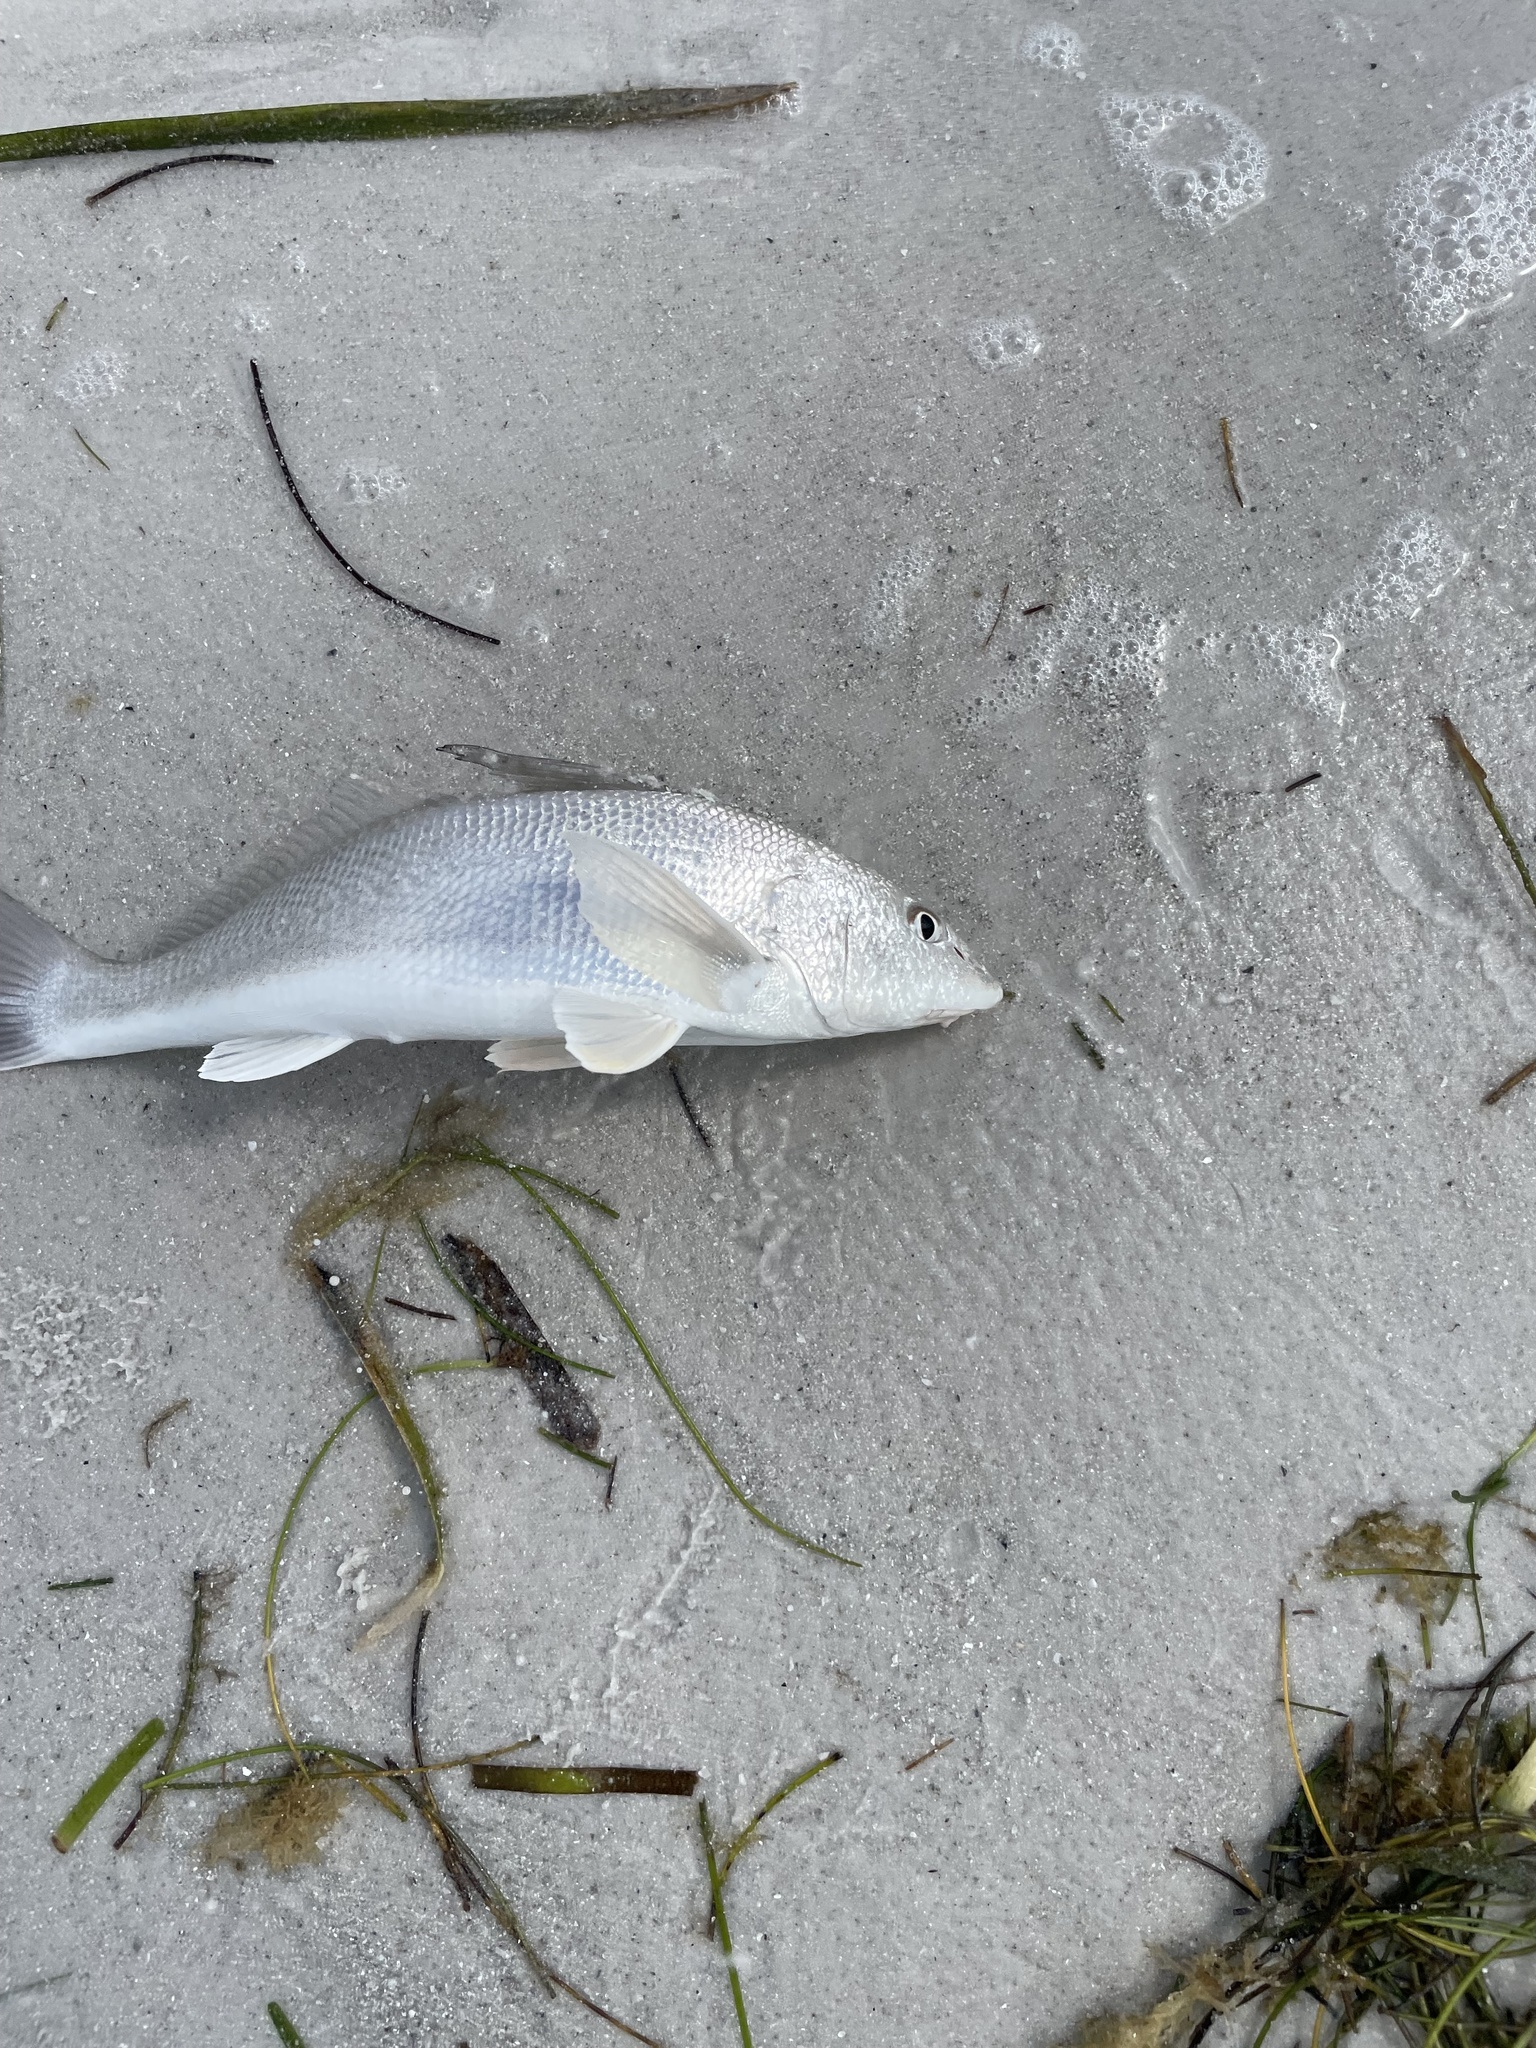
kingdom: Animalia
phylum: Chordata
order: Perciformes
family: Sciaenidae
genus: Menticirrhus
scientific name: Menticirrhus
